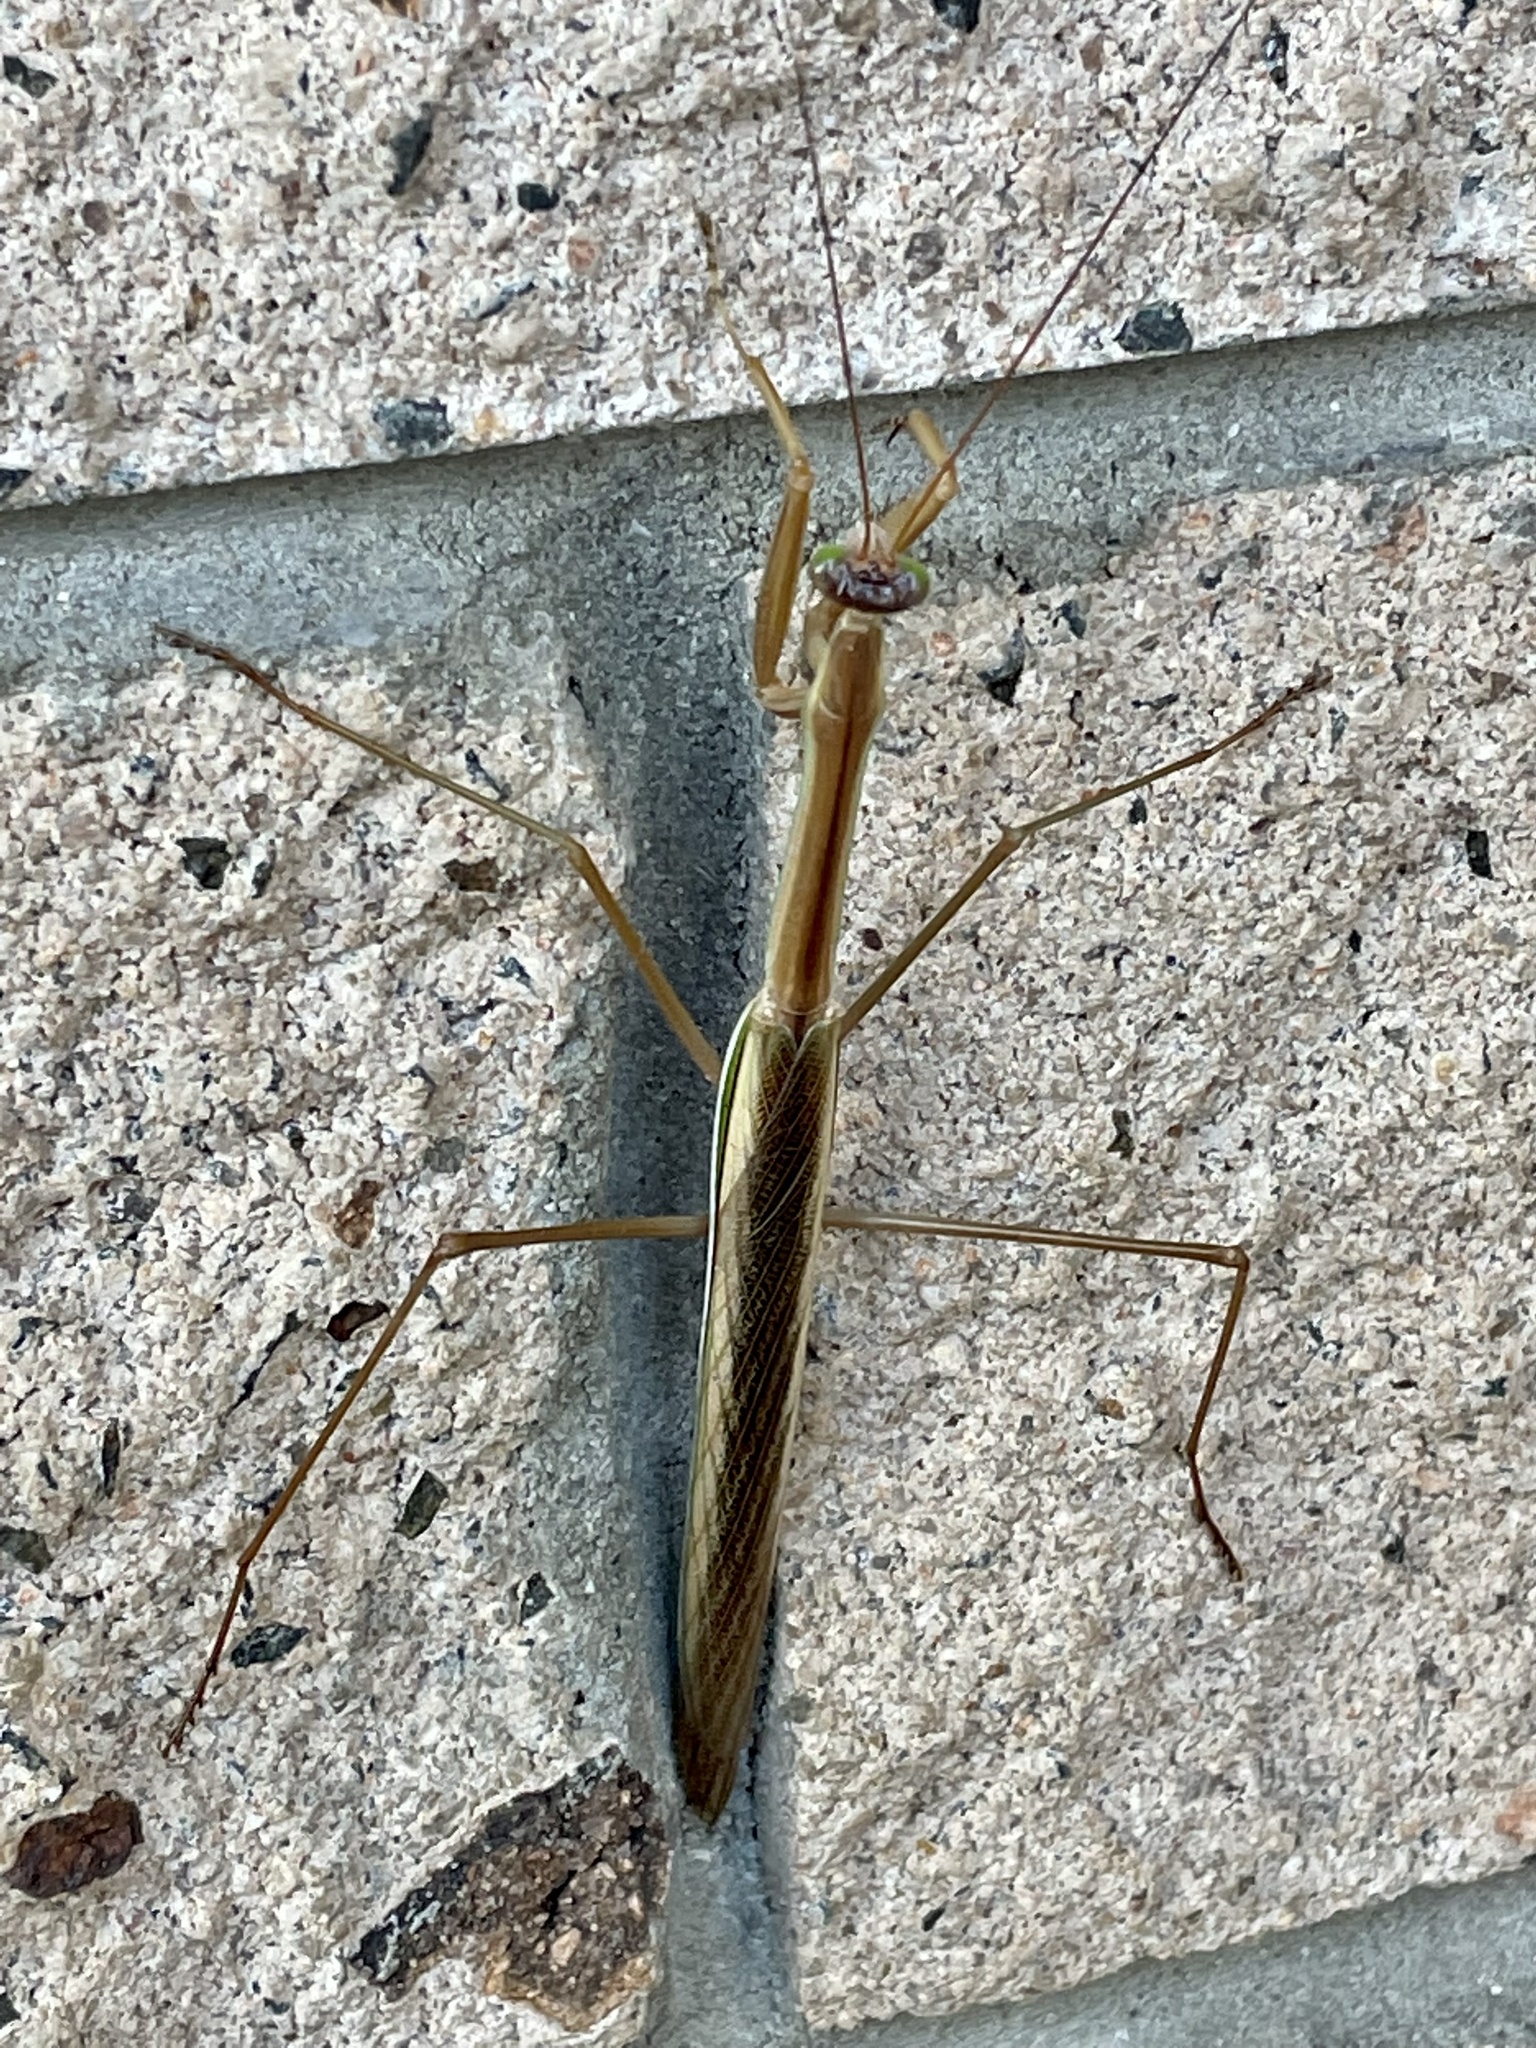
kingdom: Animalia
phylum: Arthropoda
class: Insecta
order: Mantodea
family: Mantidae
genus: Tenodera
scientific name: Tenodera australasiae
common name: Purple-winged mantis
